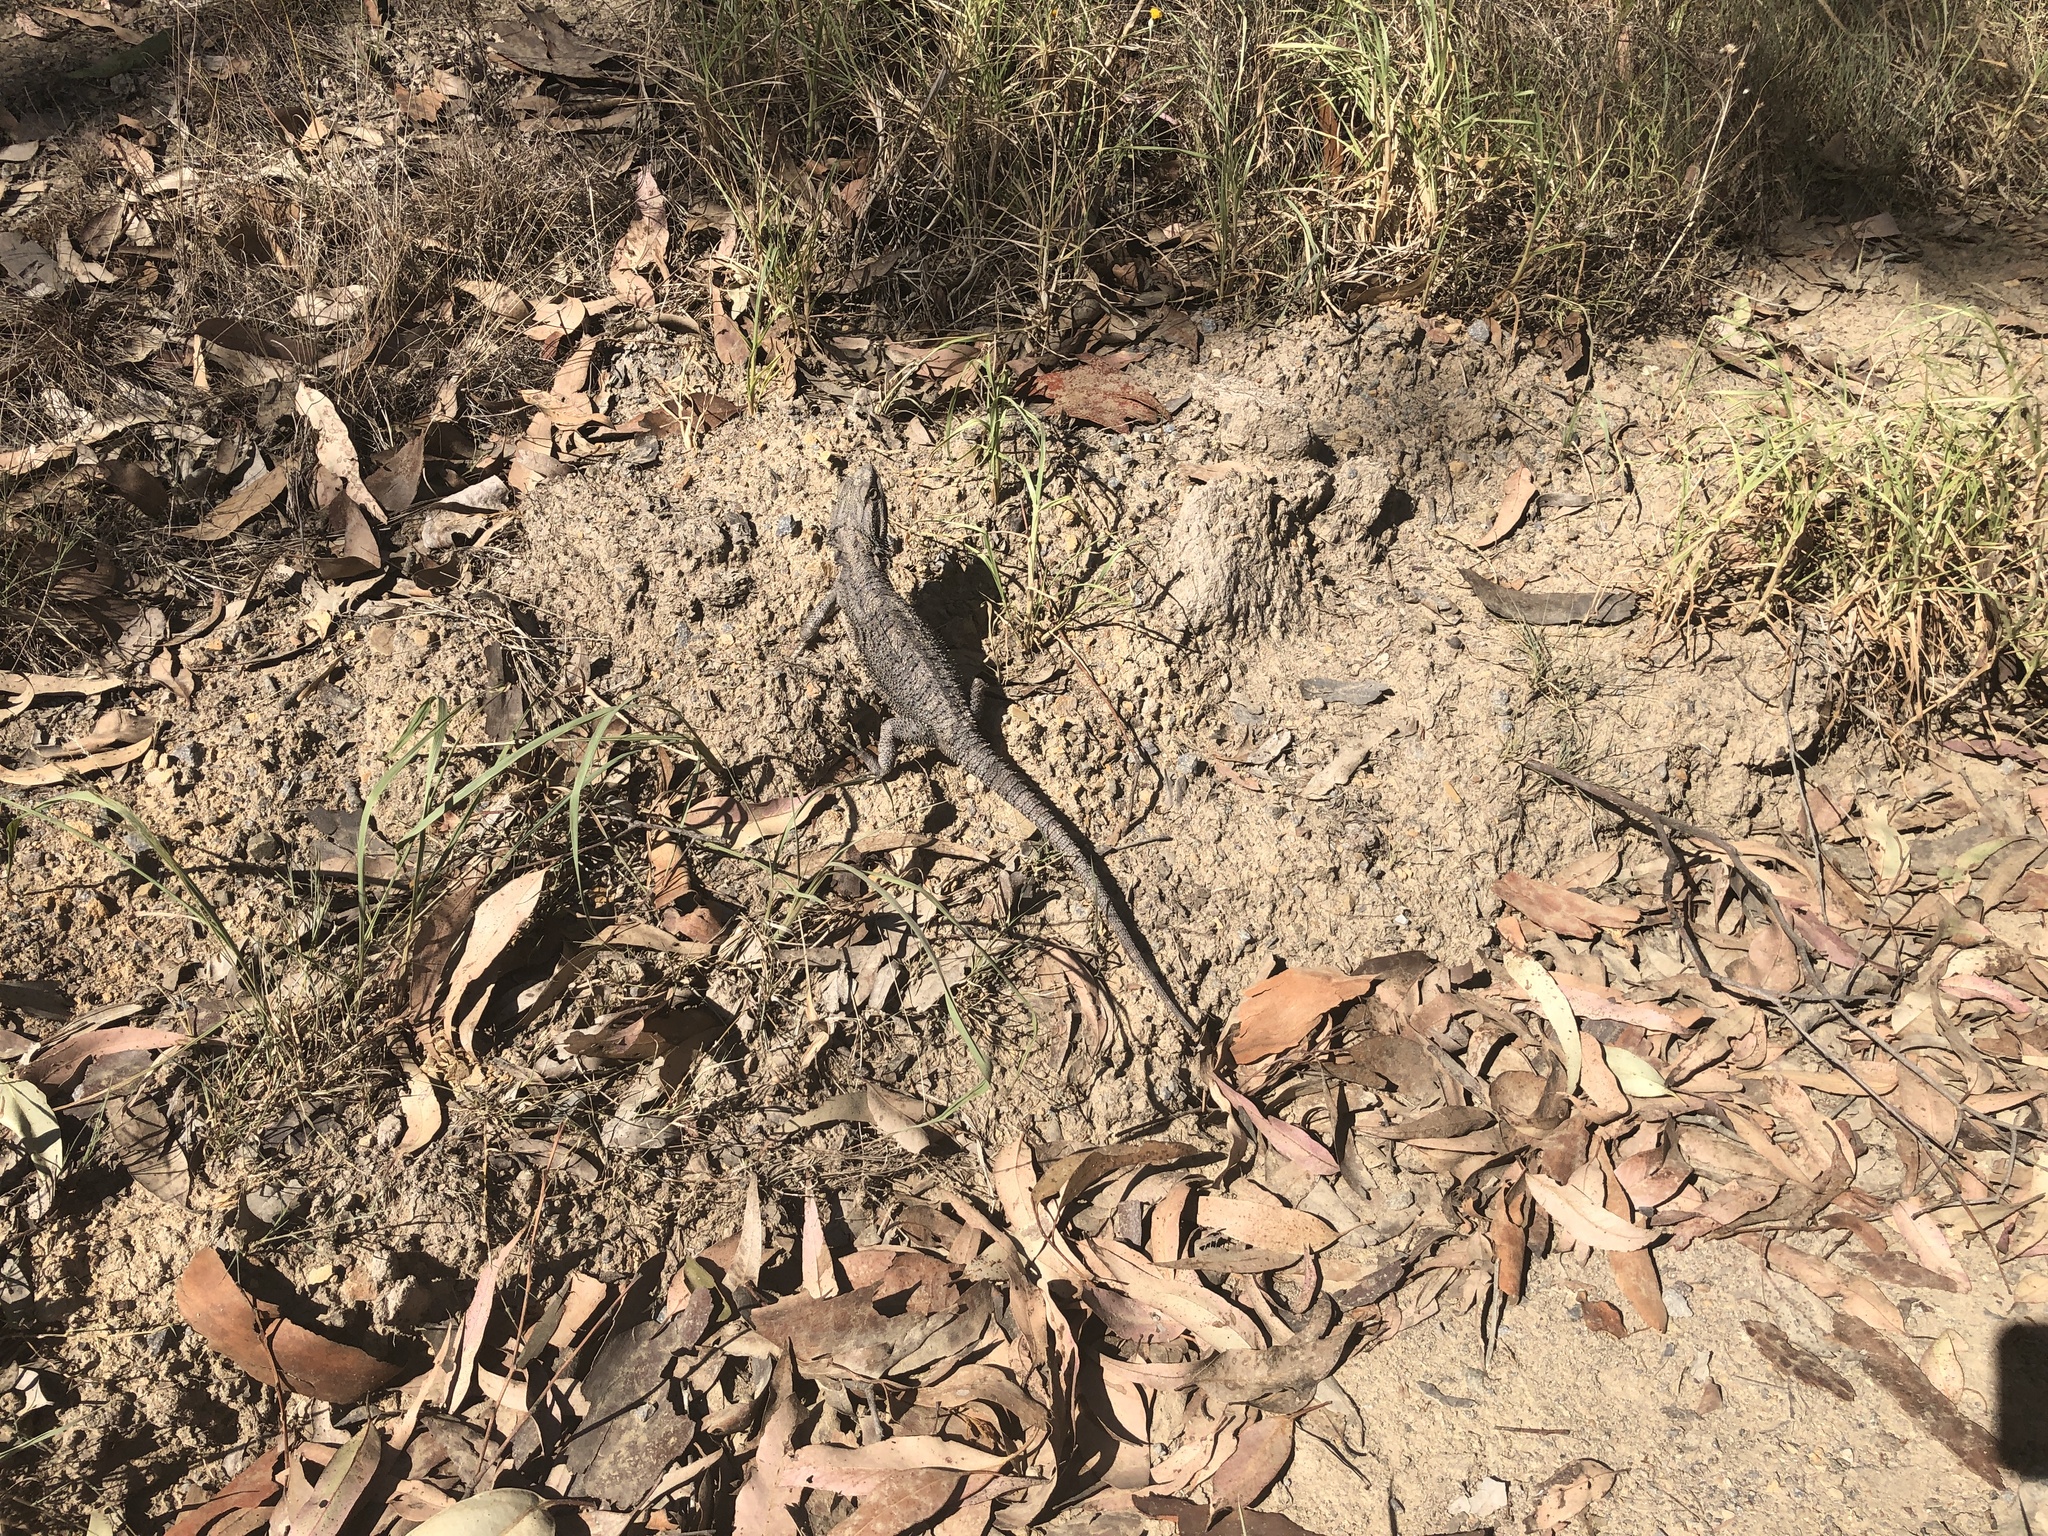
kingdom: Animalia
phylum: Chordata
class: Squamata
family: Agamidae
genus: Pogona
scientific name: Pogona barbata
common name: Bearded dragon
